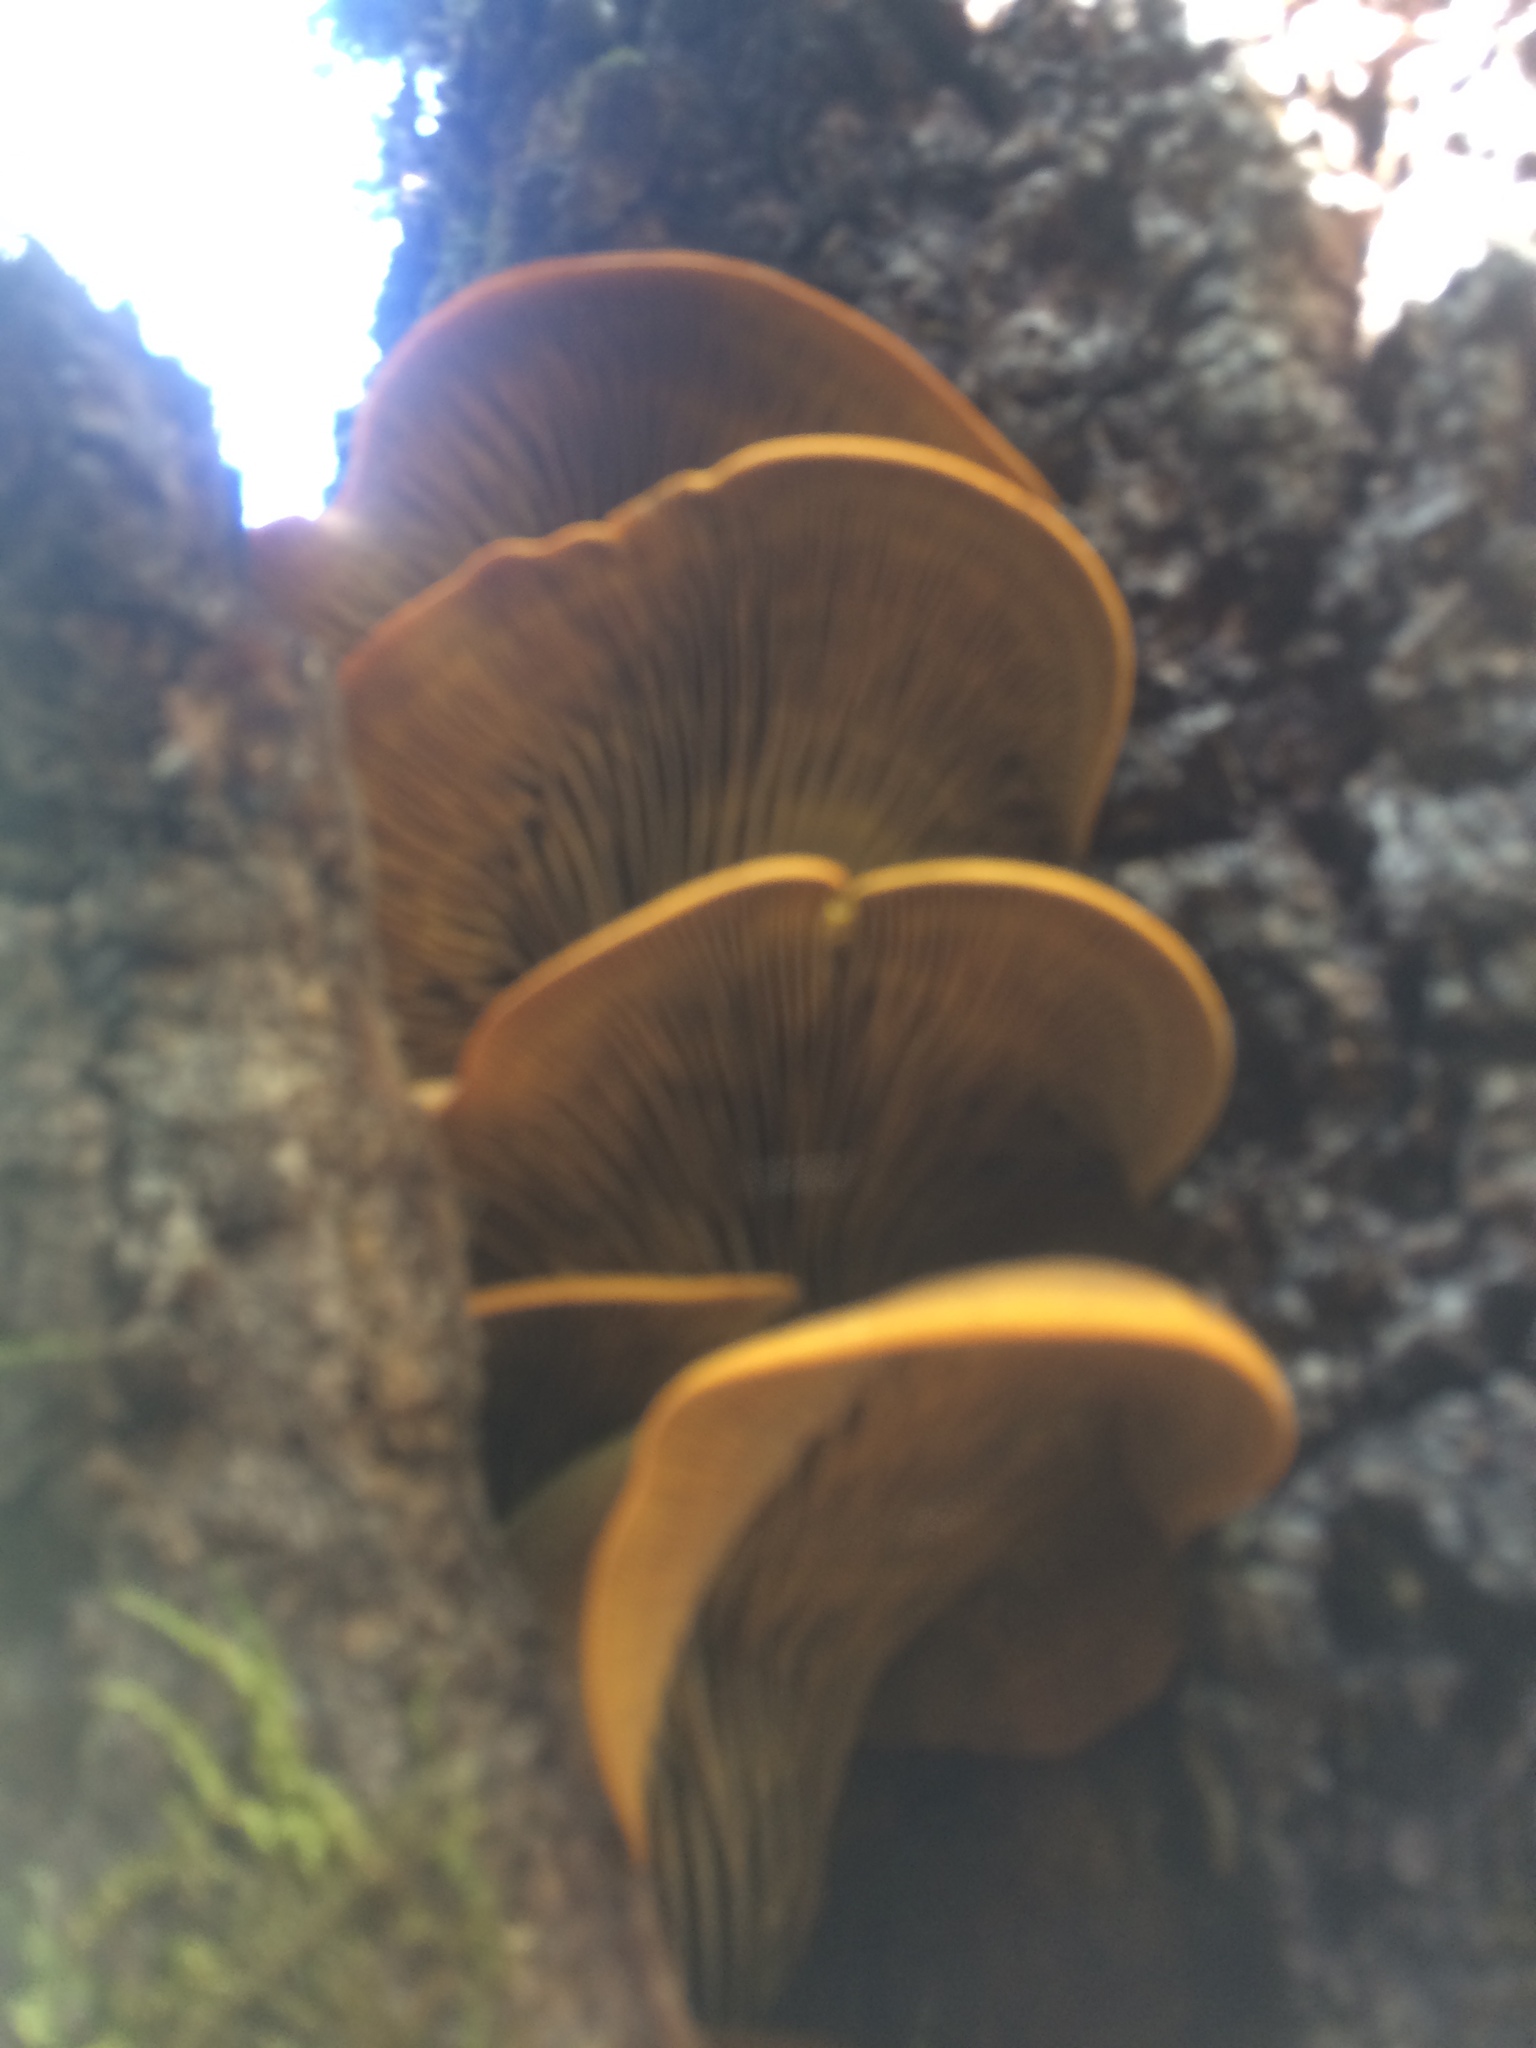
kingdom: Fungi
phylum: Basidiomycota
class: Agaricomycetes
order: Agaricales
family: Omphalotaceae
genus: Omphalotus
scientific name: Omphalotus olivascens
